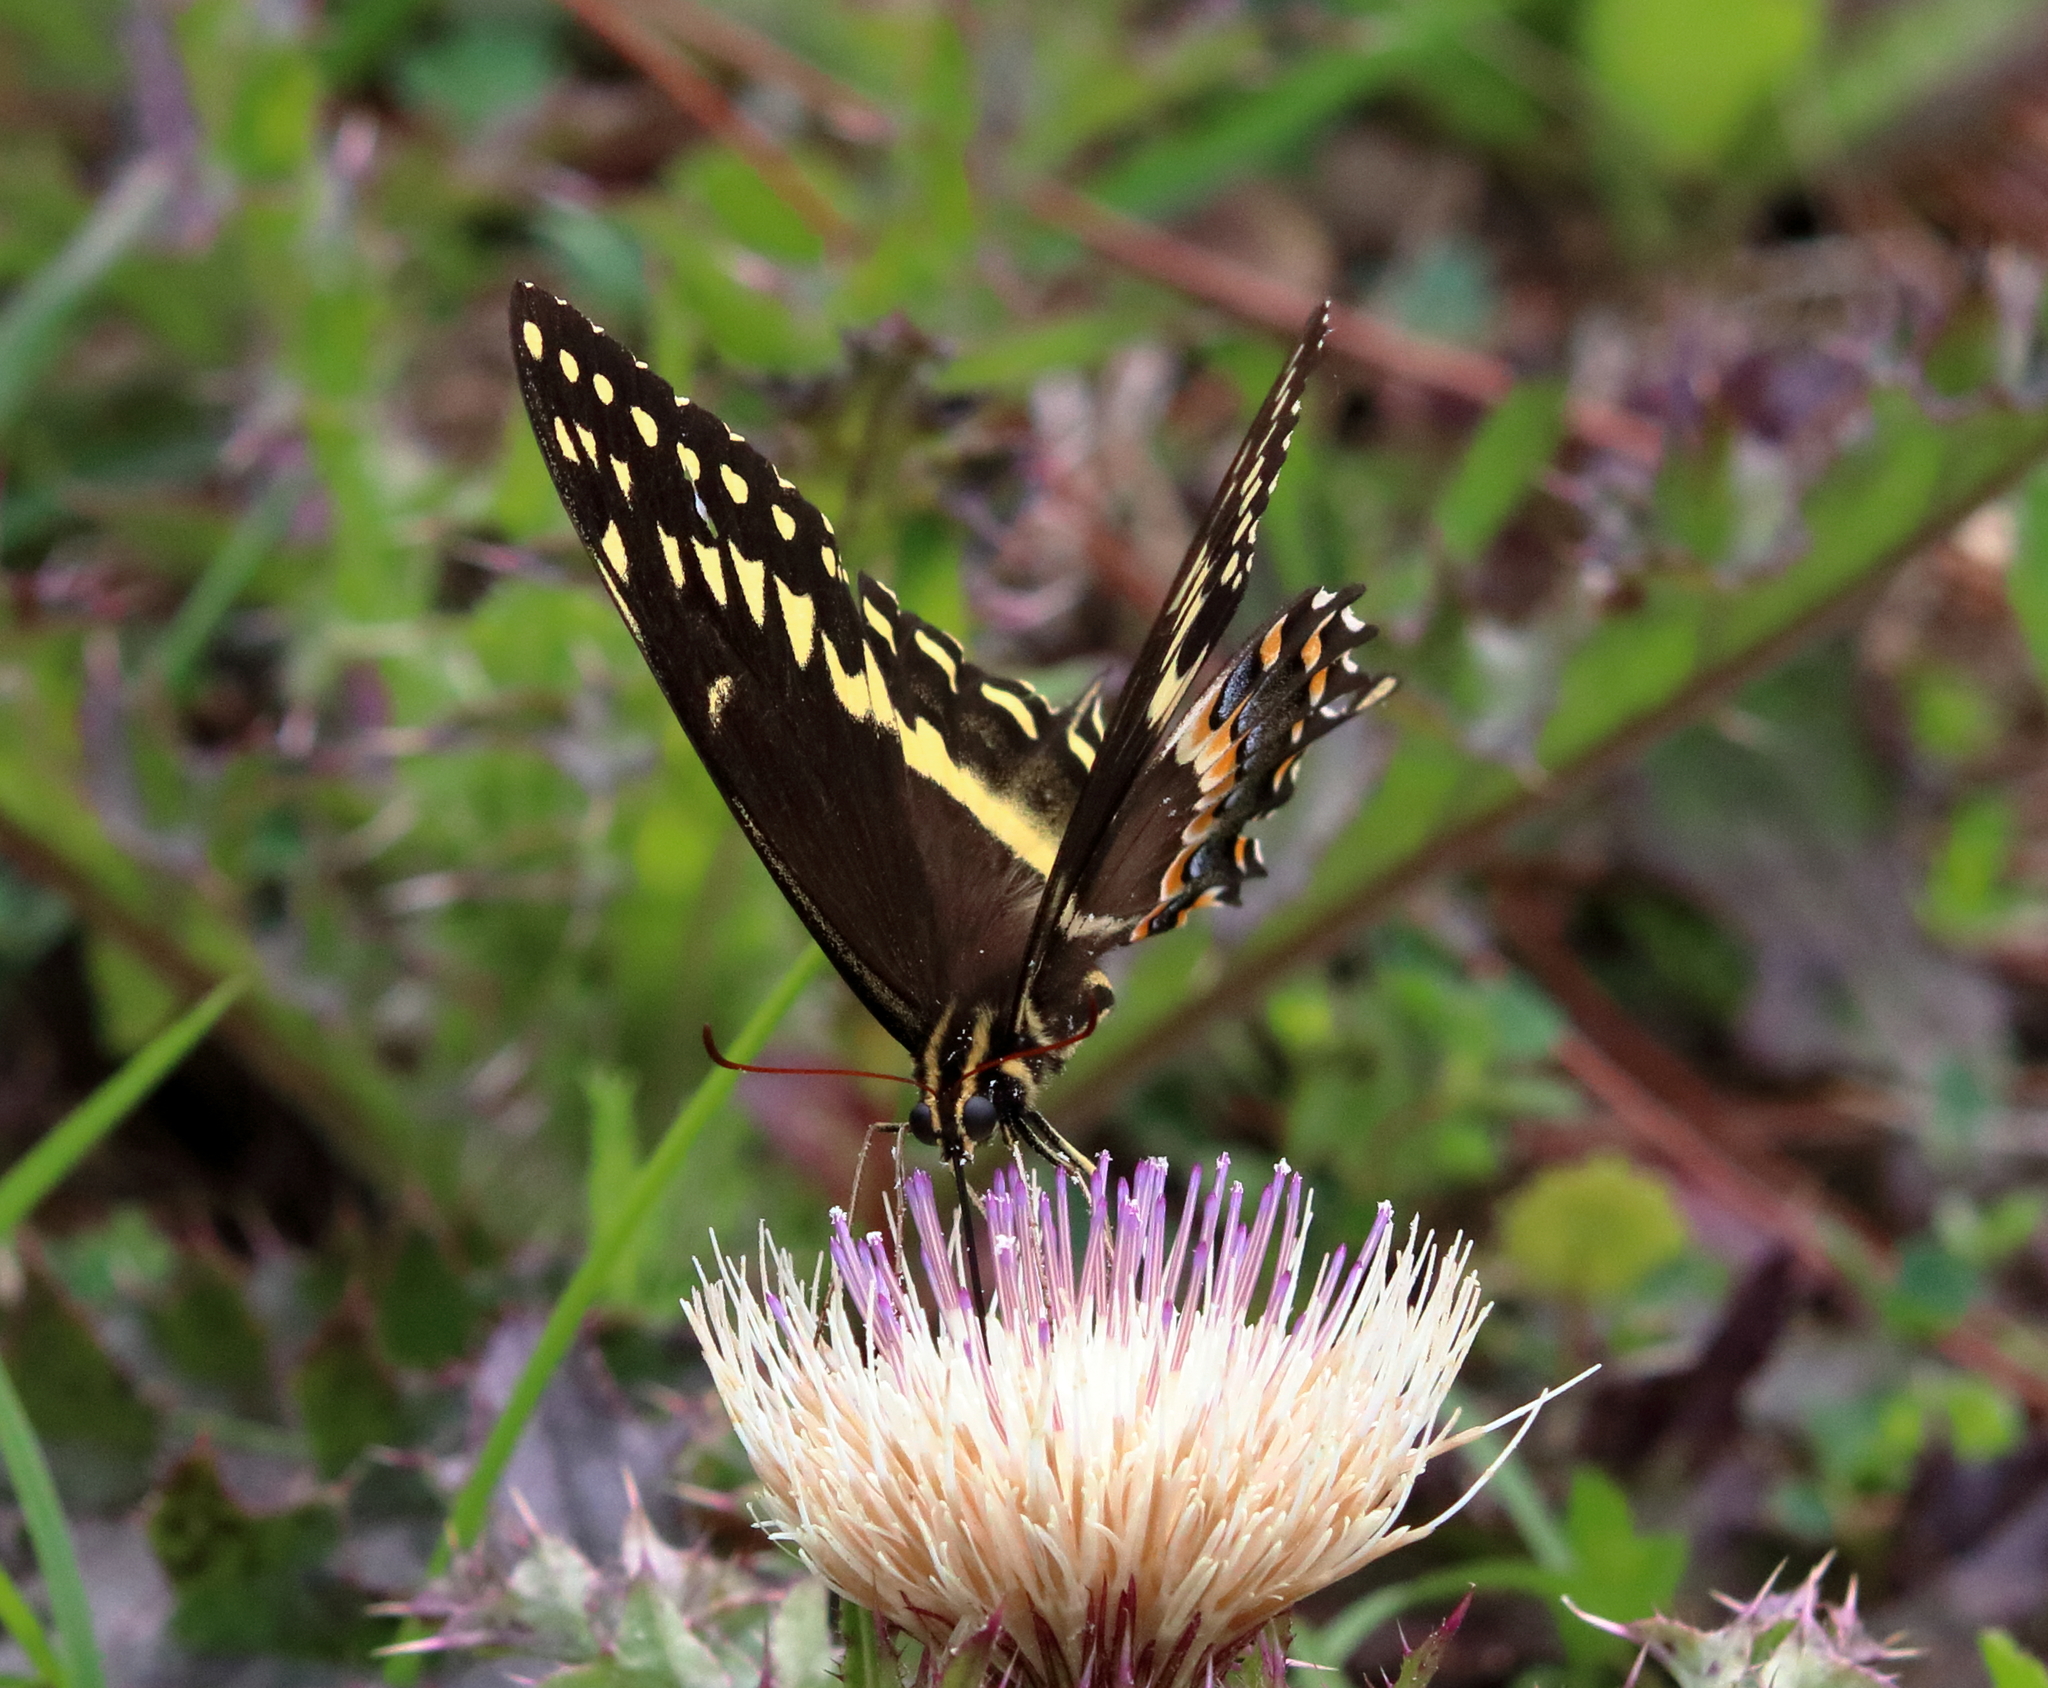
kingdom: Animalia
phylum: Arthropoda
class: Insecta
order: Lepidoptera
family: Papilionidae
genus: Papilio
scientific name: Papilio palamedes
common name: Palamedes swallowtail
